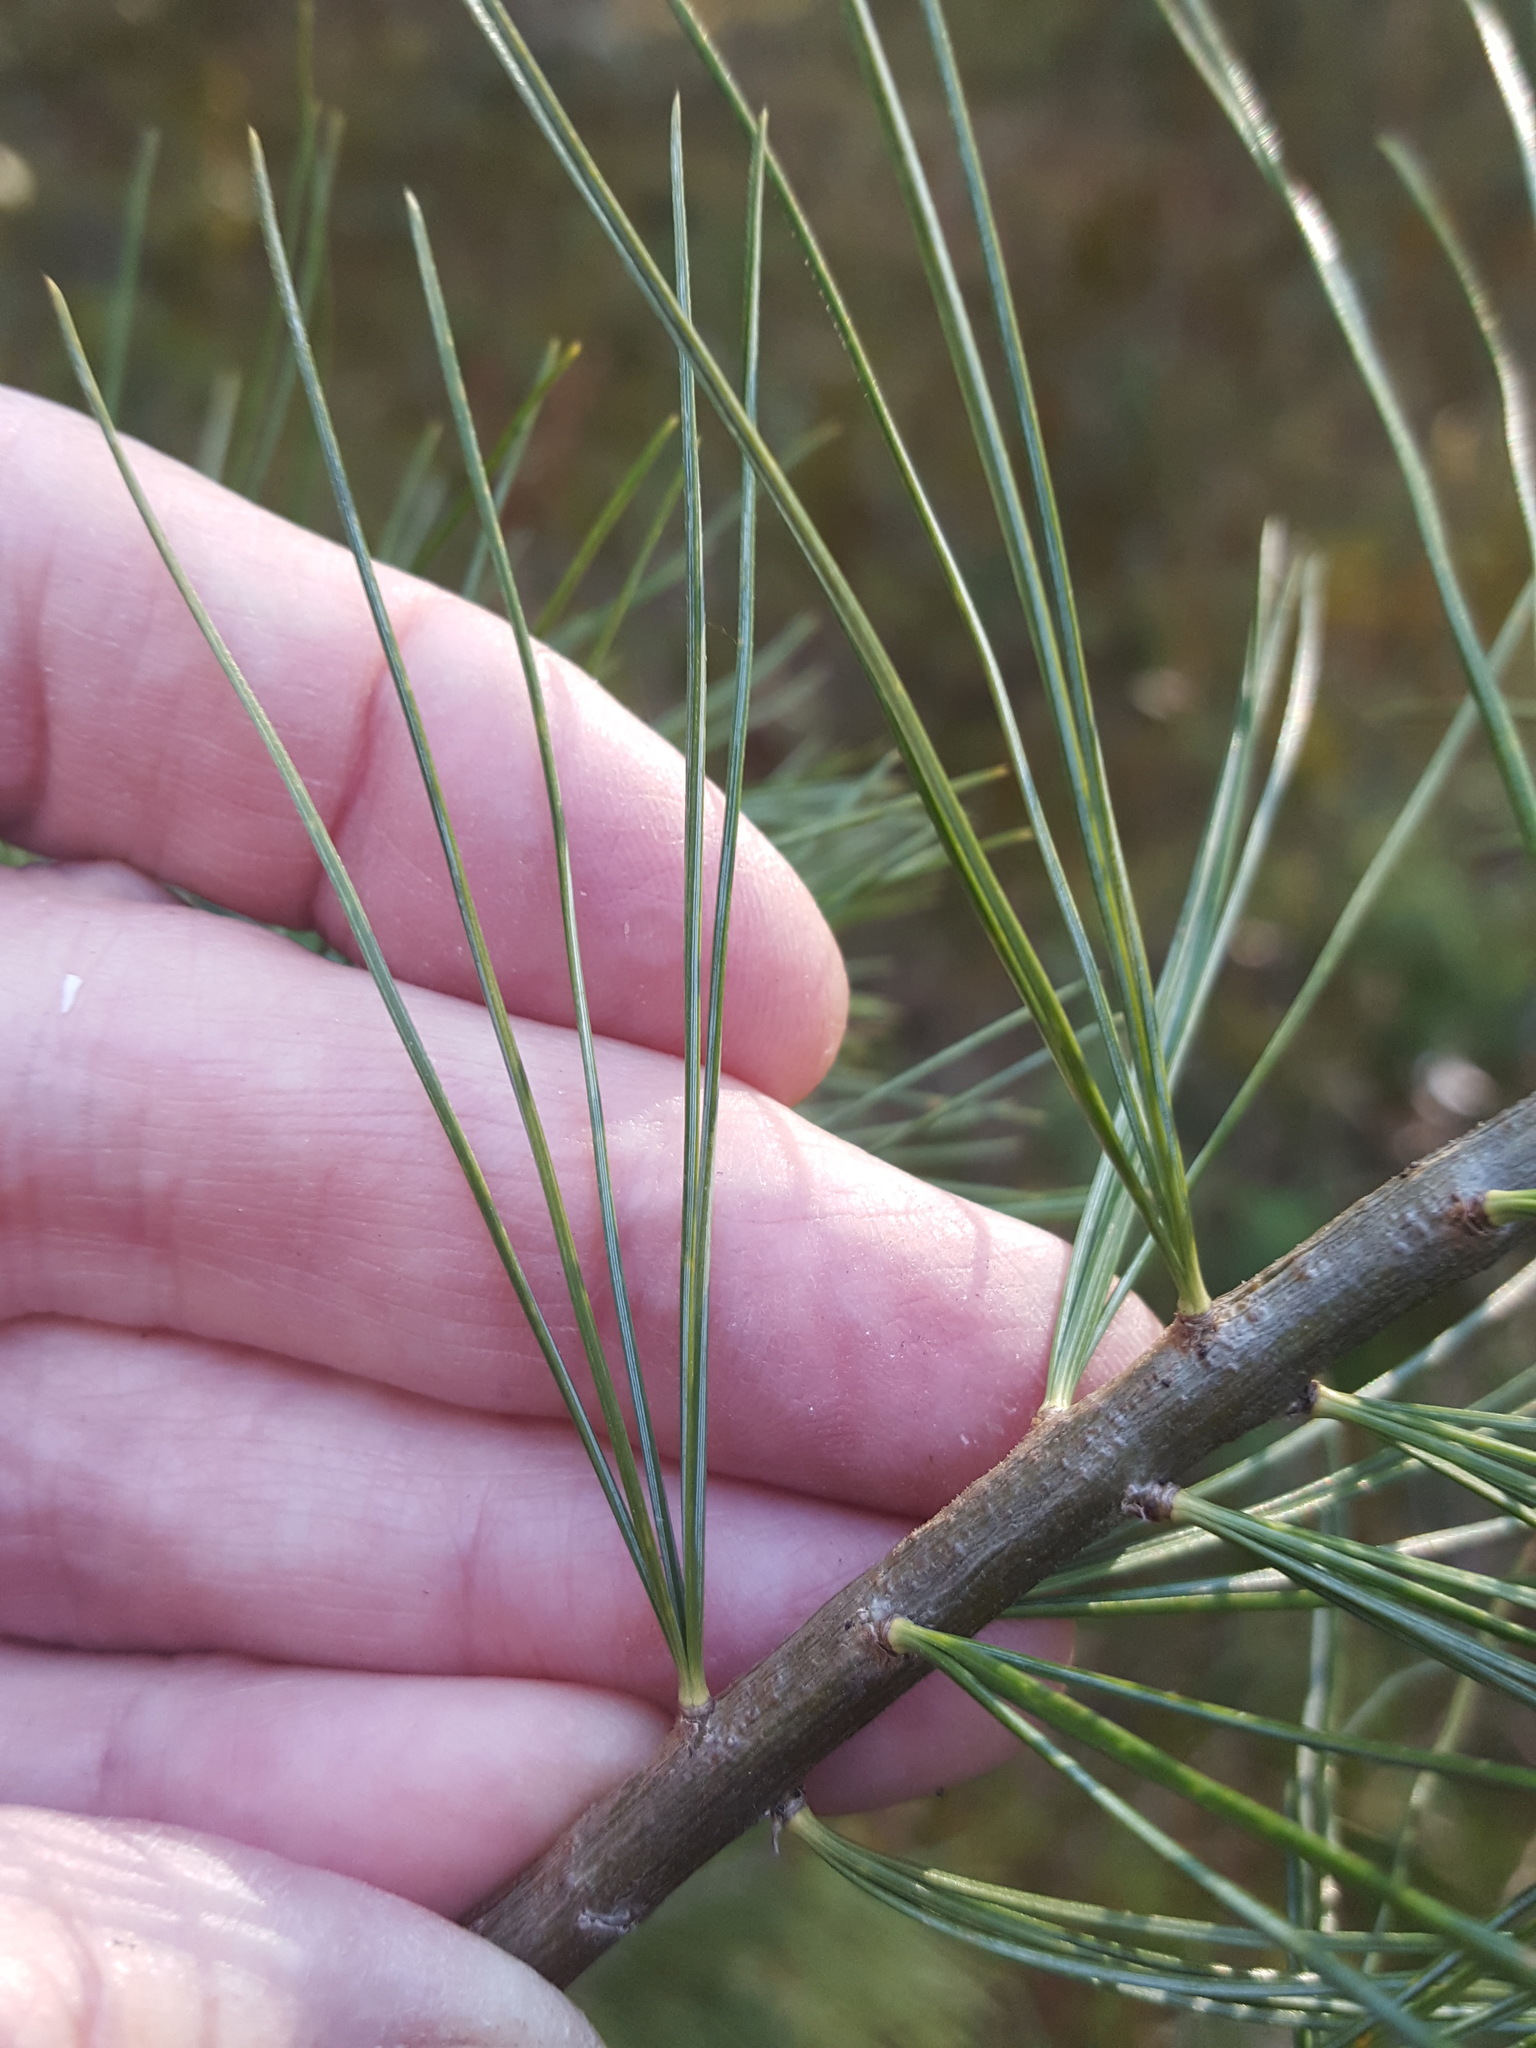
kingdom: Plantae
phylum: Tracheophyta
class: Pinopsida
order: Pinales
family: Pinaceae
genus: Pinus
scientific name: Pinus strobus
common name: Weymouth pine
